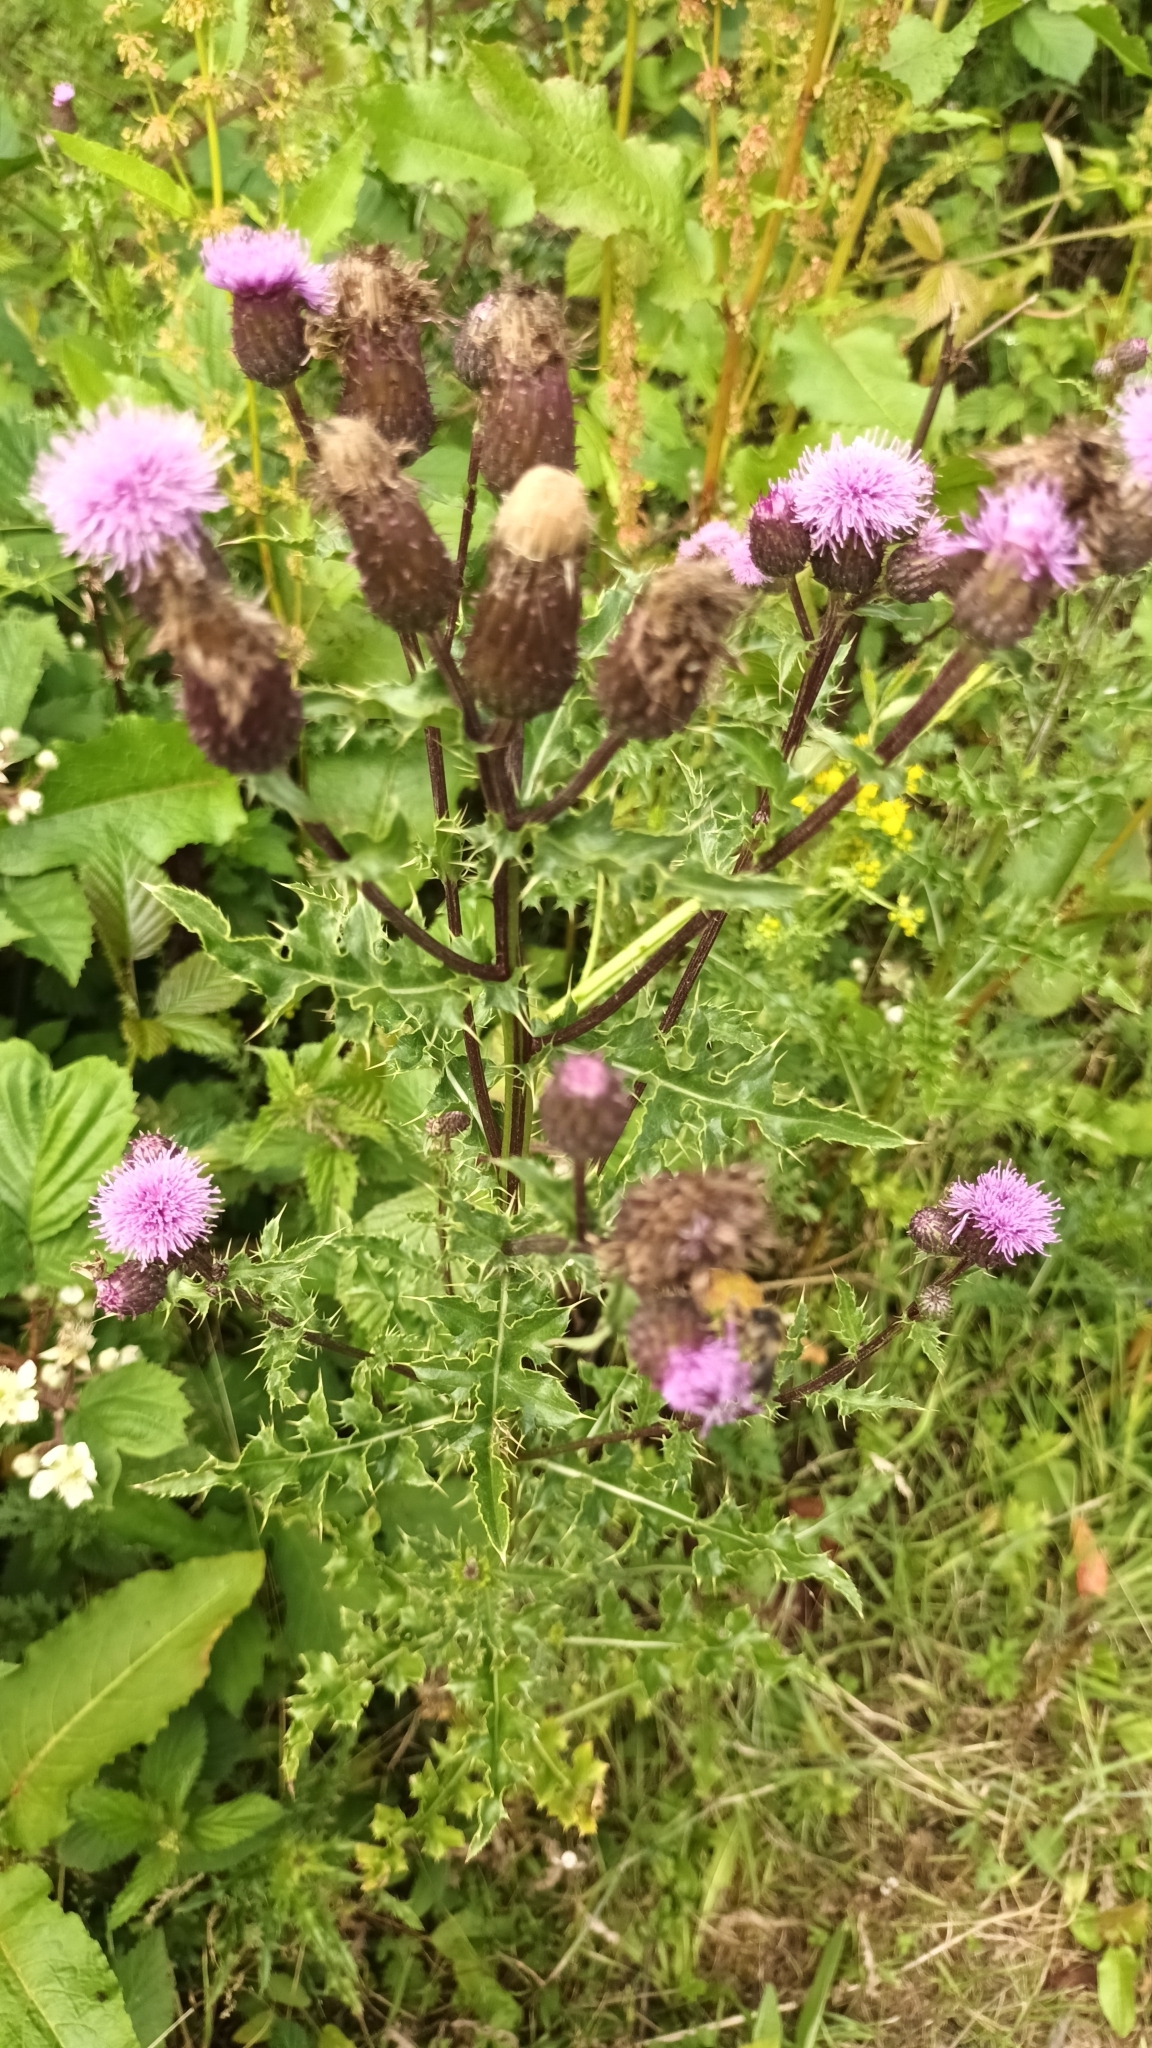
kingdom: Plantae
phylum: Tracheophyta
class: Magnoliopsida
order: Asterales
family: Asteraceae
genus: Cirsium
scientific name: Cirsium arvense
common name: Creeping thistle
